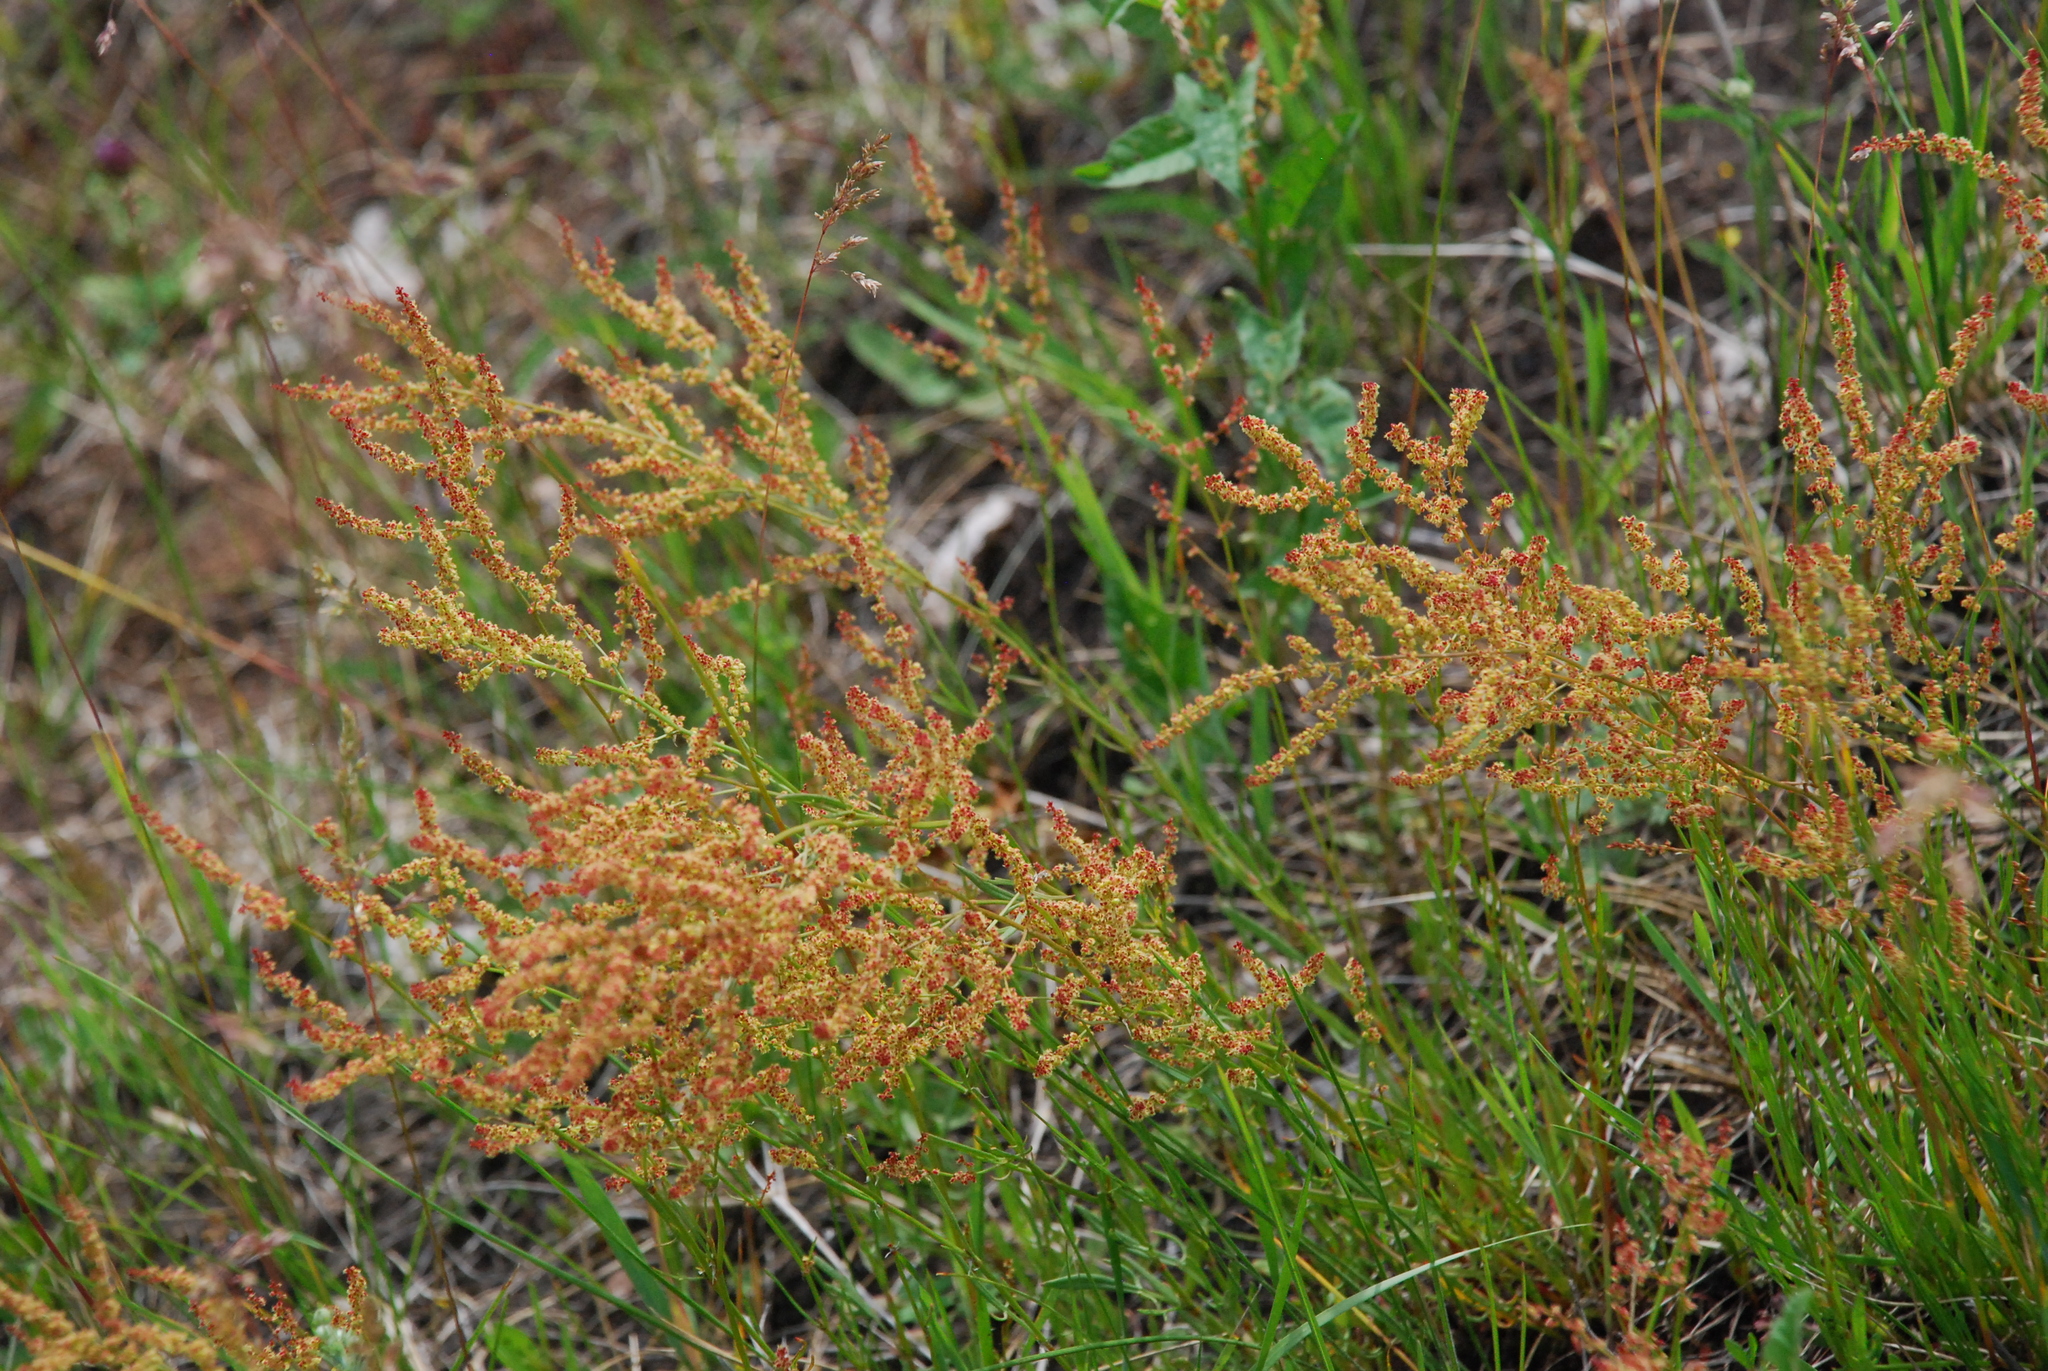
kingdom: Plantae
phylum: Tracheophyta
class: Magnoliopsida
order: Caryophyllales
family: Polygonaceae
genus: Rumex
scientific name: Rumex acetosella
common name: Common sheep sorrel
